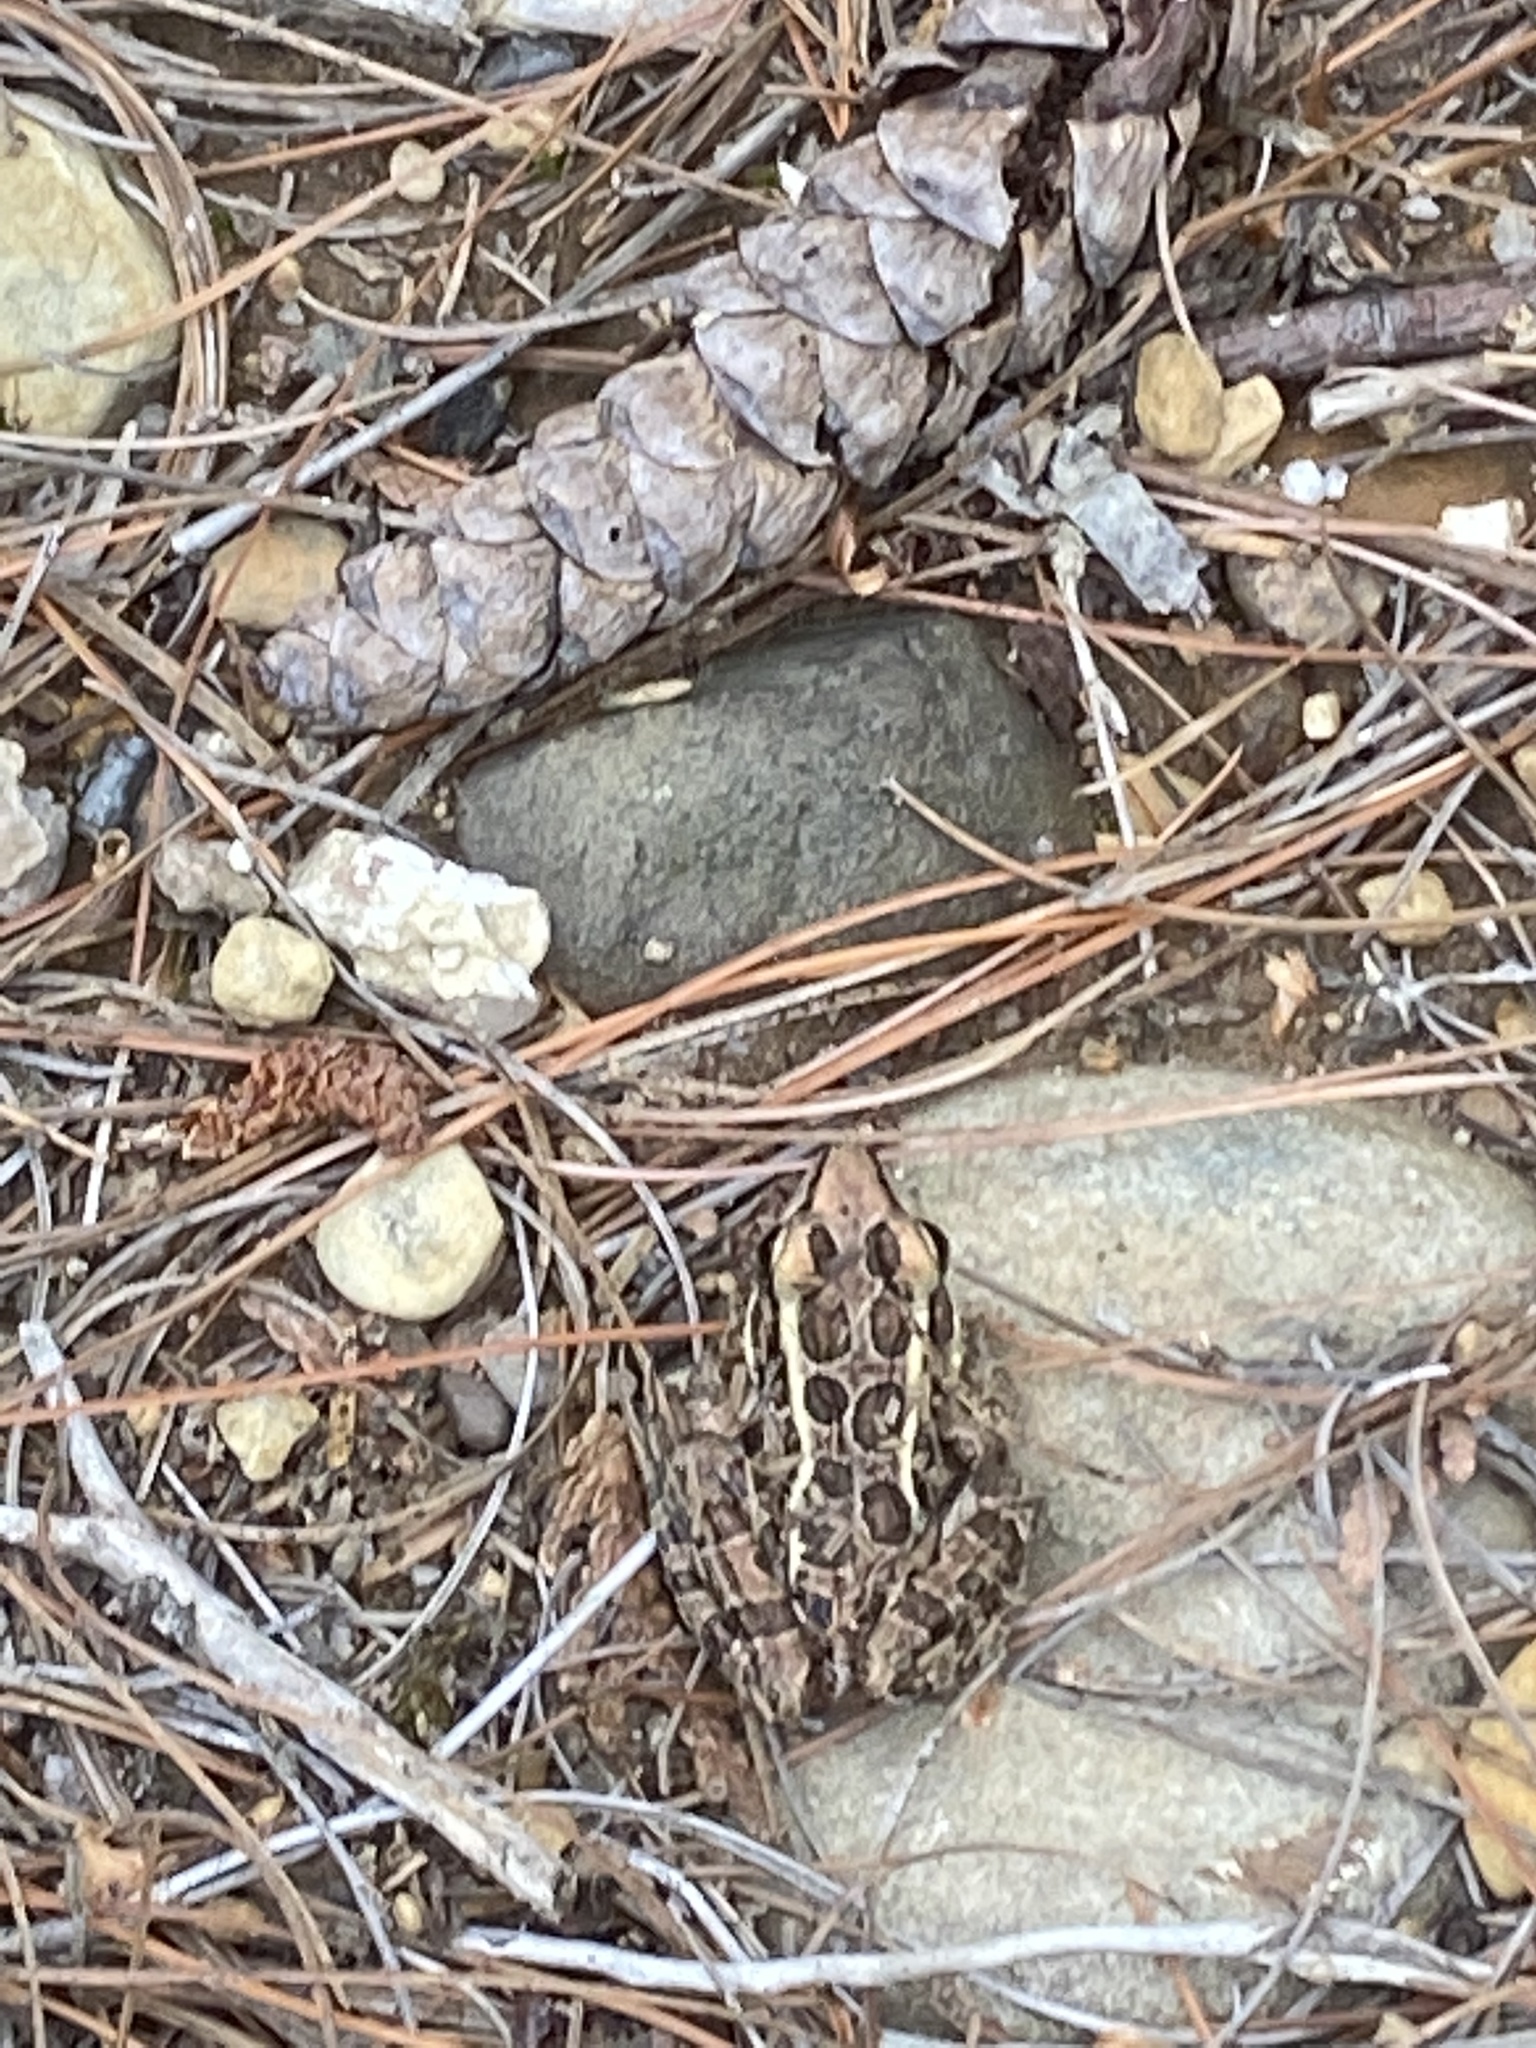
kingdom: Animalia
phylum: Chordata
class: Amphibia
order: Anura
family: Ranidae
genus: Lithobates
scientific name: Lithobates palustris
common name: Pickerel frog
